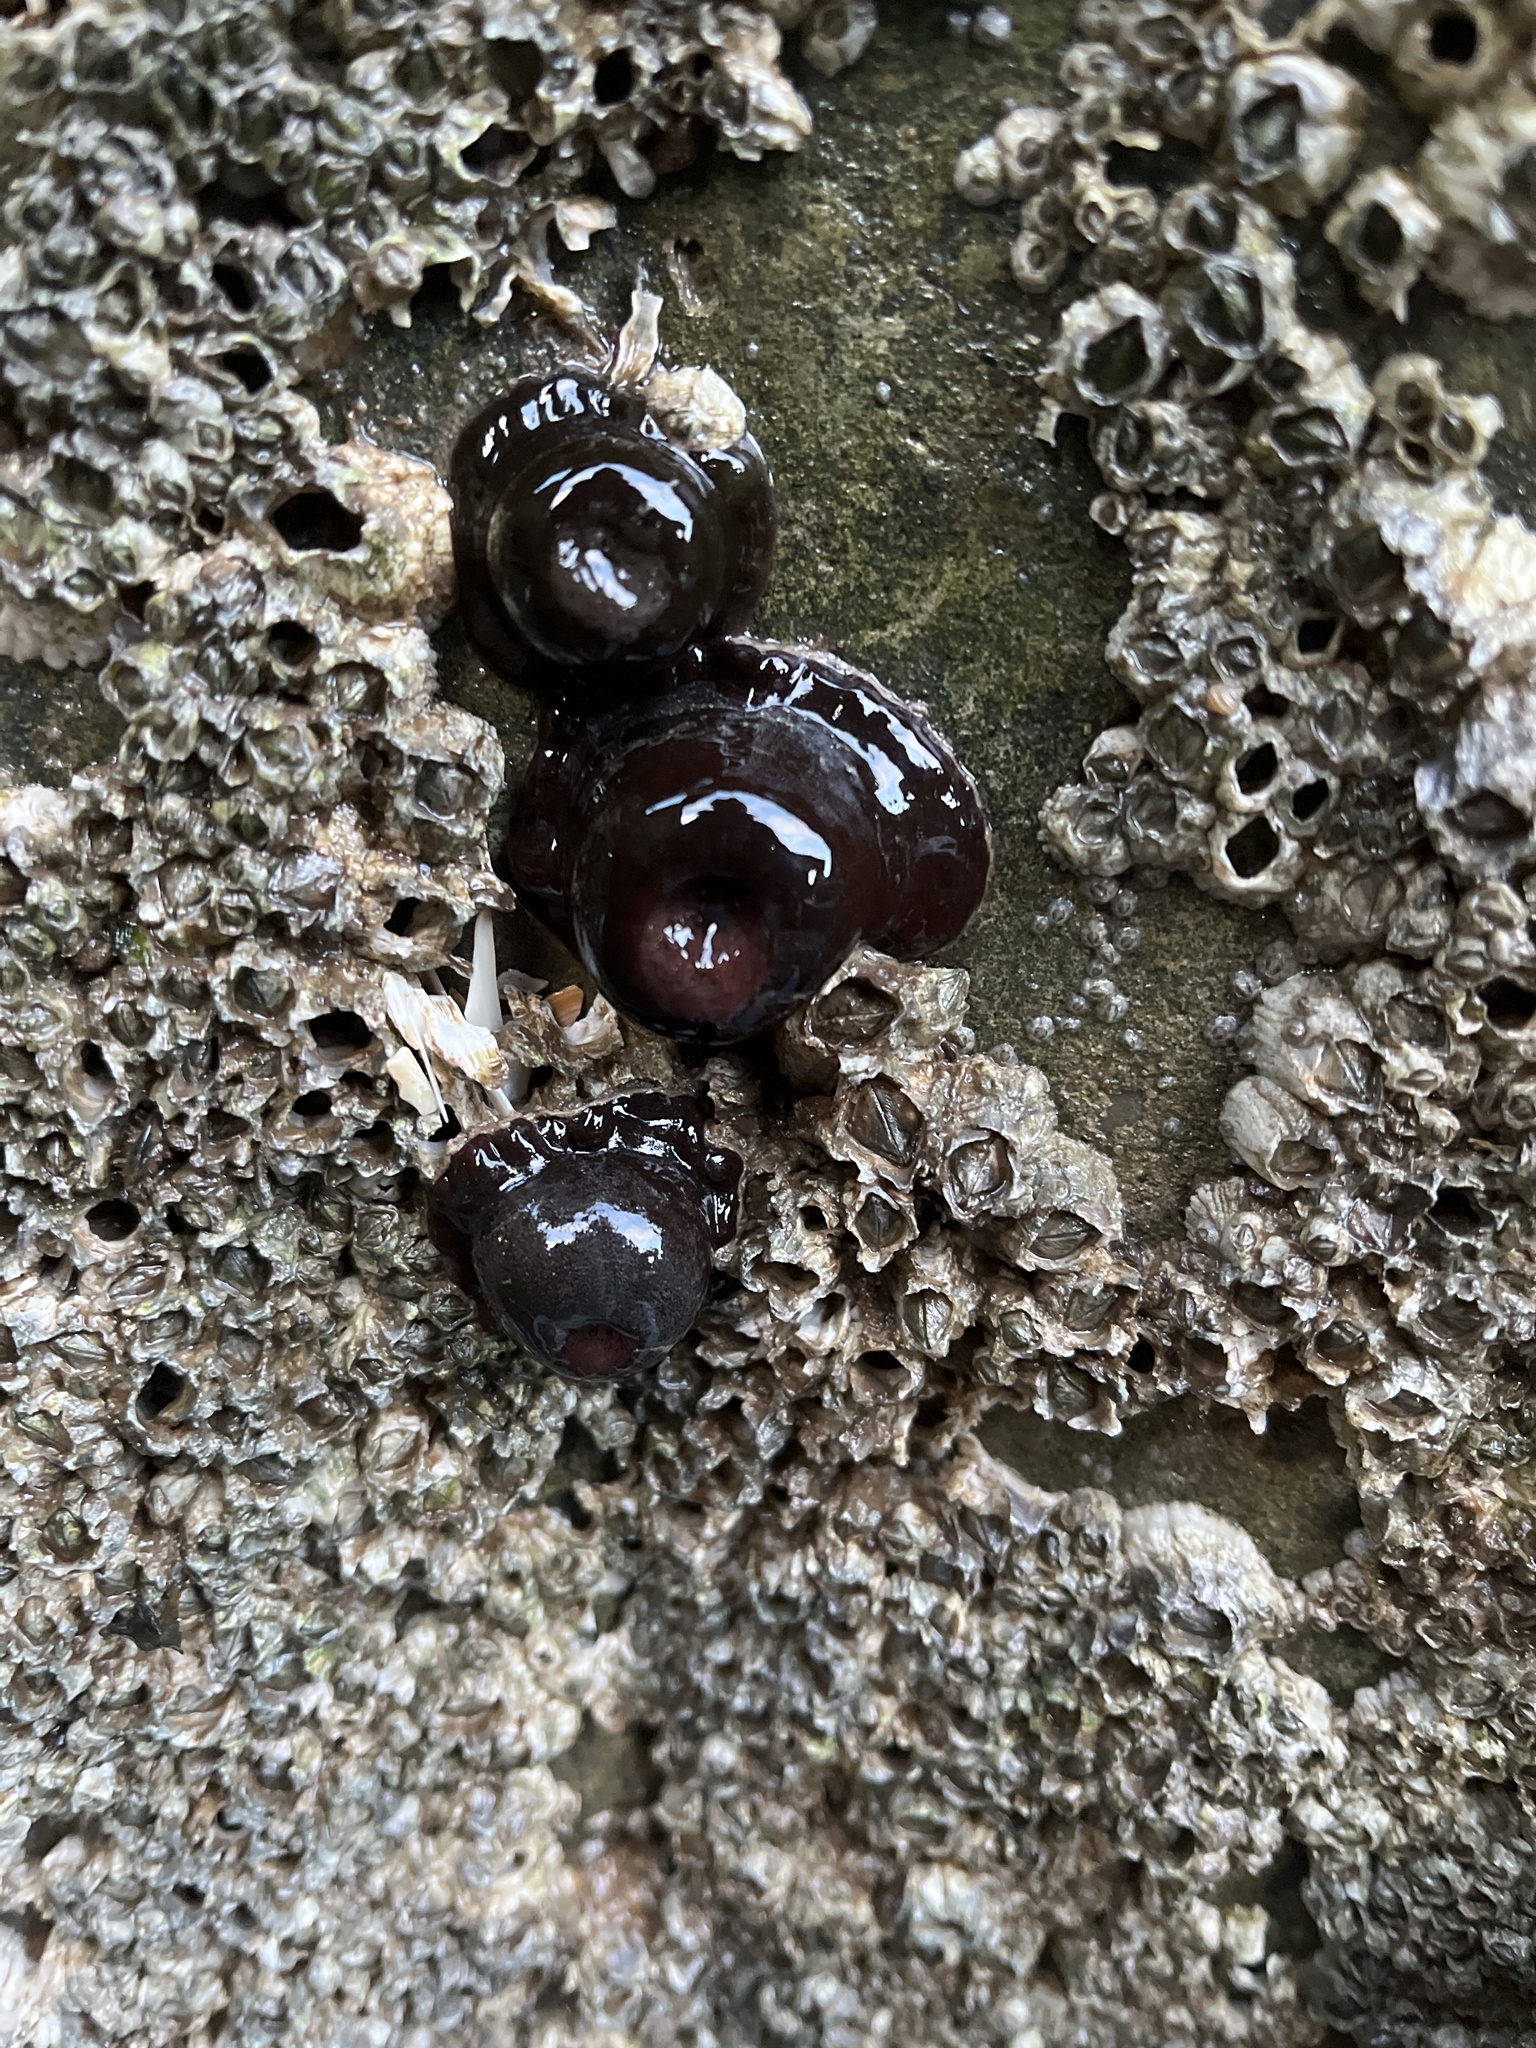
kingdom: Animalia
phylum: Cnidaria
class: Anthozoa
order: Actiniaria
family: Actiniidae
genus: Actinia
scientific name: Actinia equina
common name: Beadlet anemone
